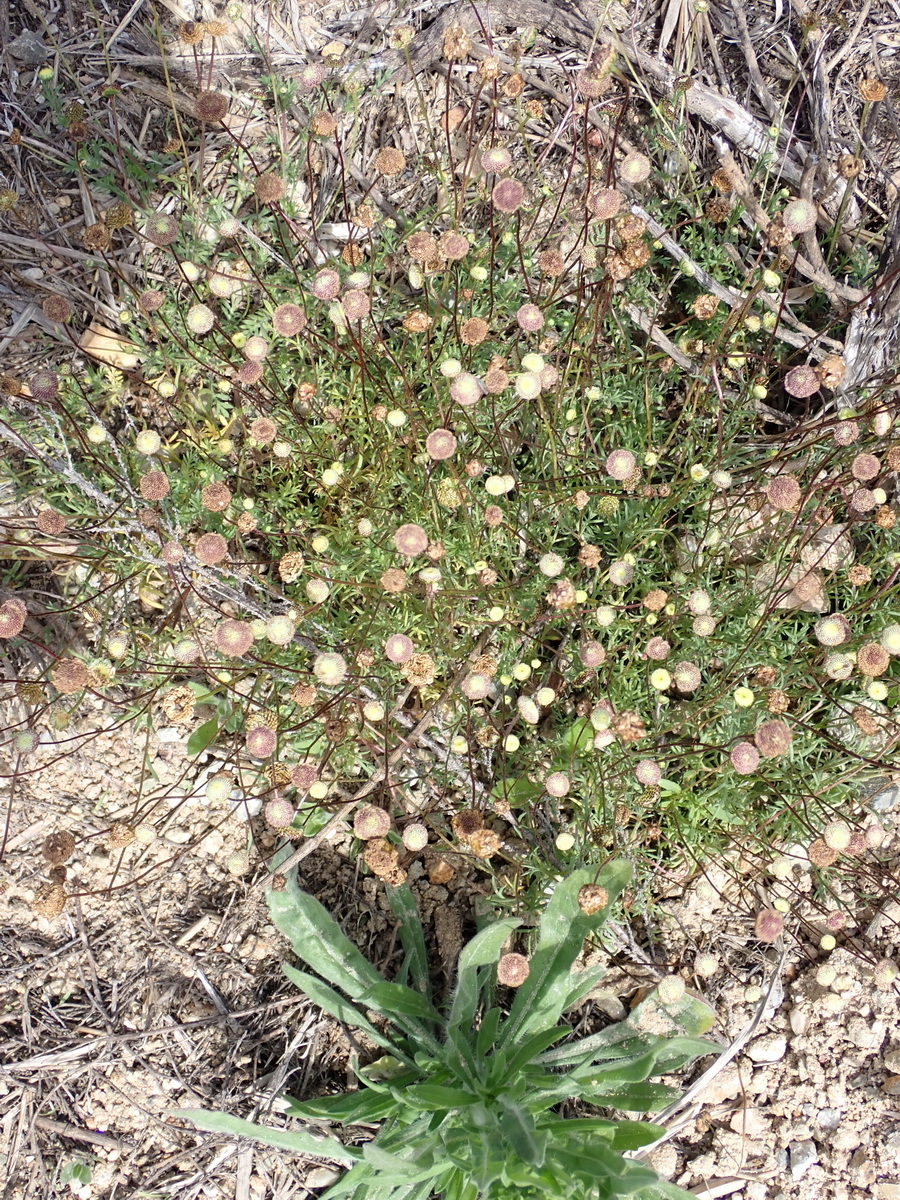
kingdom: Plantae
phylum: Tracheophyta
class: Magnoliopsida
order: Asterales
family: Asteraceae
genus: Cotula
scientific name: Cotula australis
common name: Australian waterbuttons
